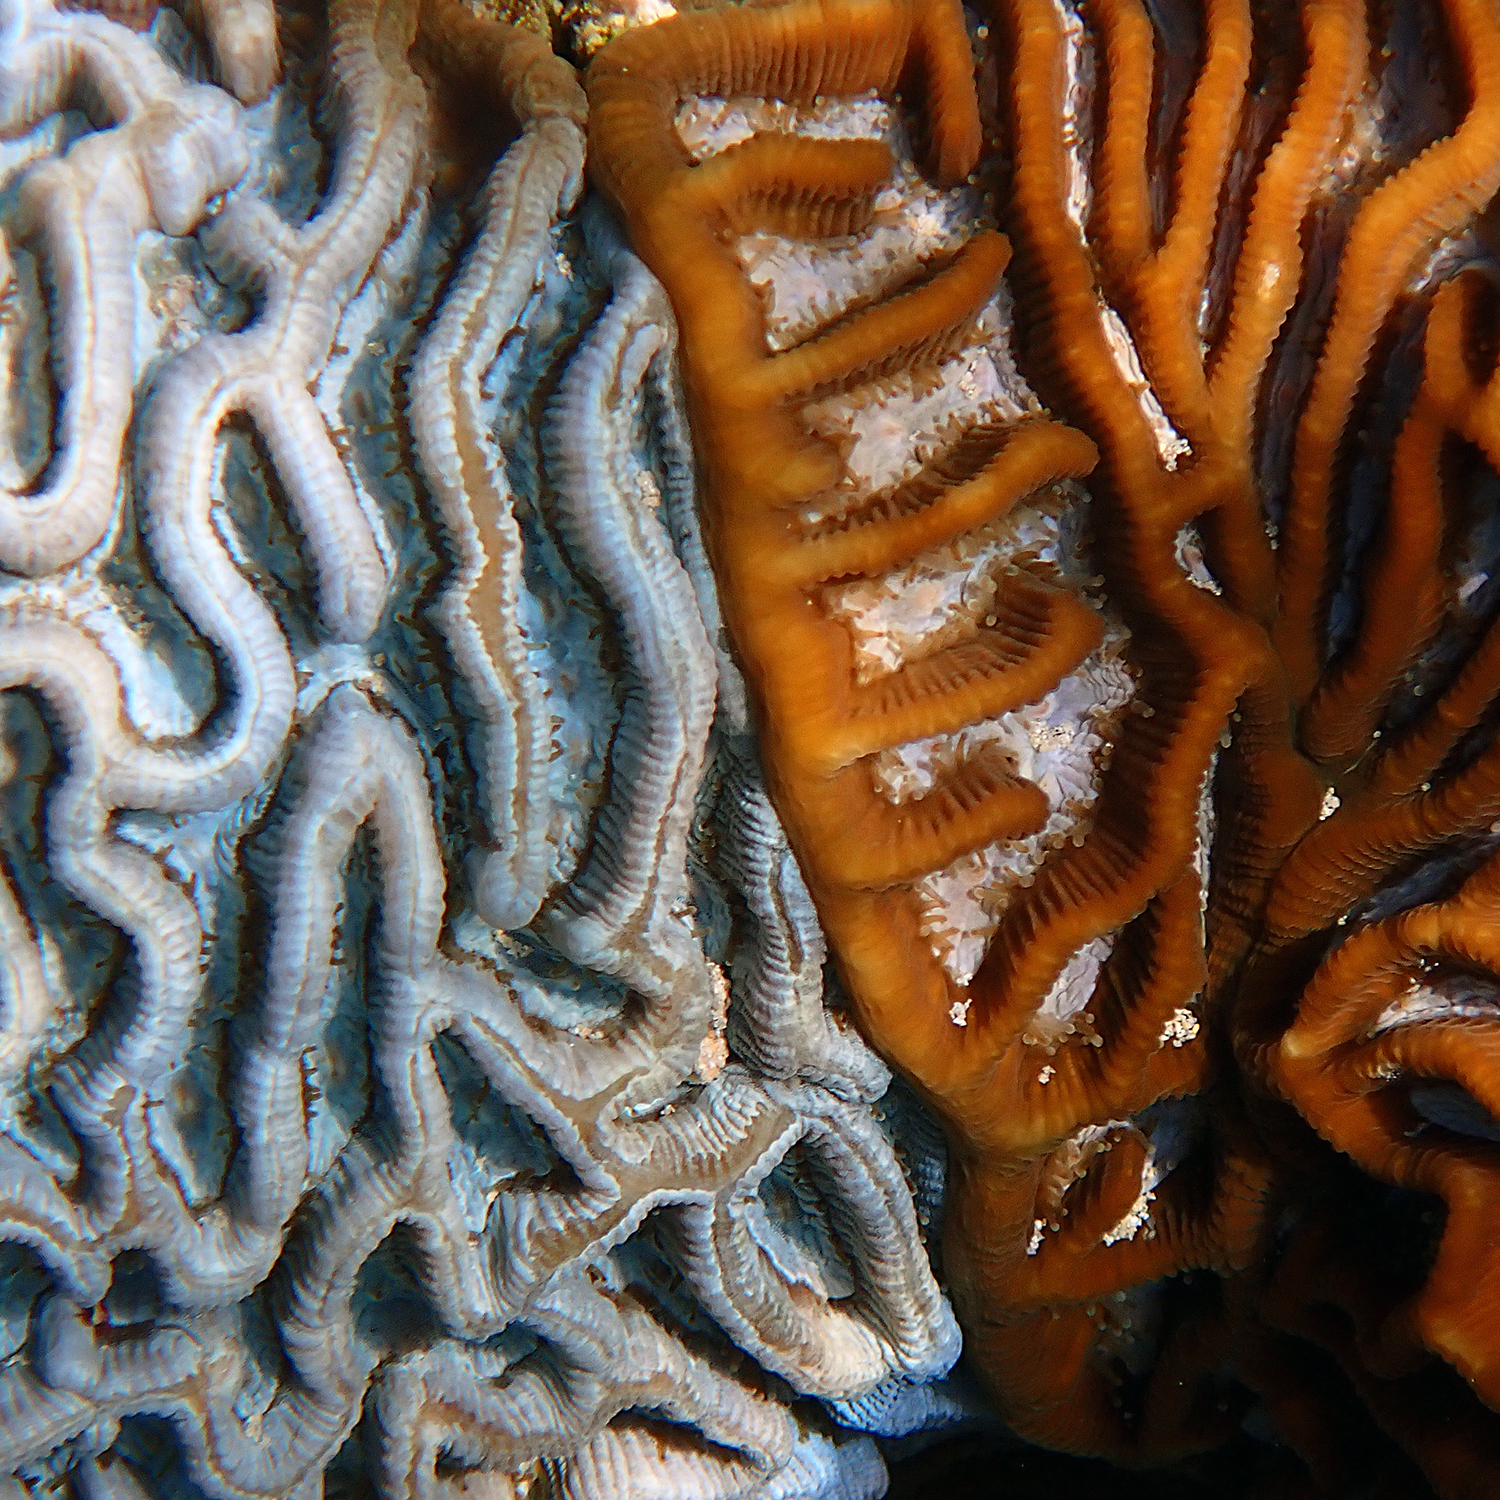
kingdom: Animalia
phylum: Cnidaria
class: Anthozoa
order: Scleractinia
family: Merulinidae
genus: Paragoniastrea
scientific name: Paragoniastrea australensis
